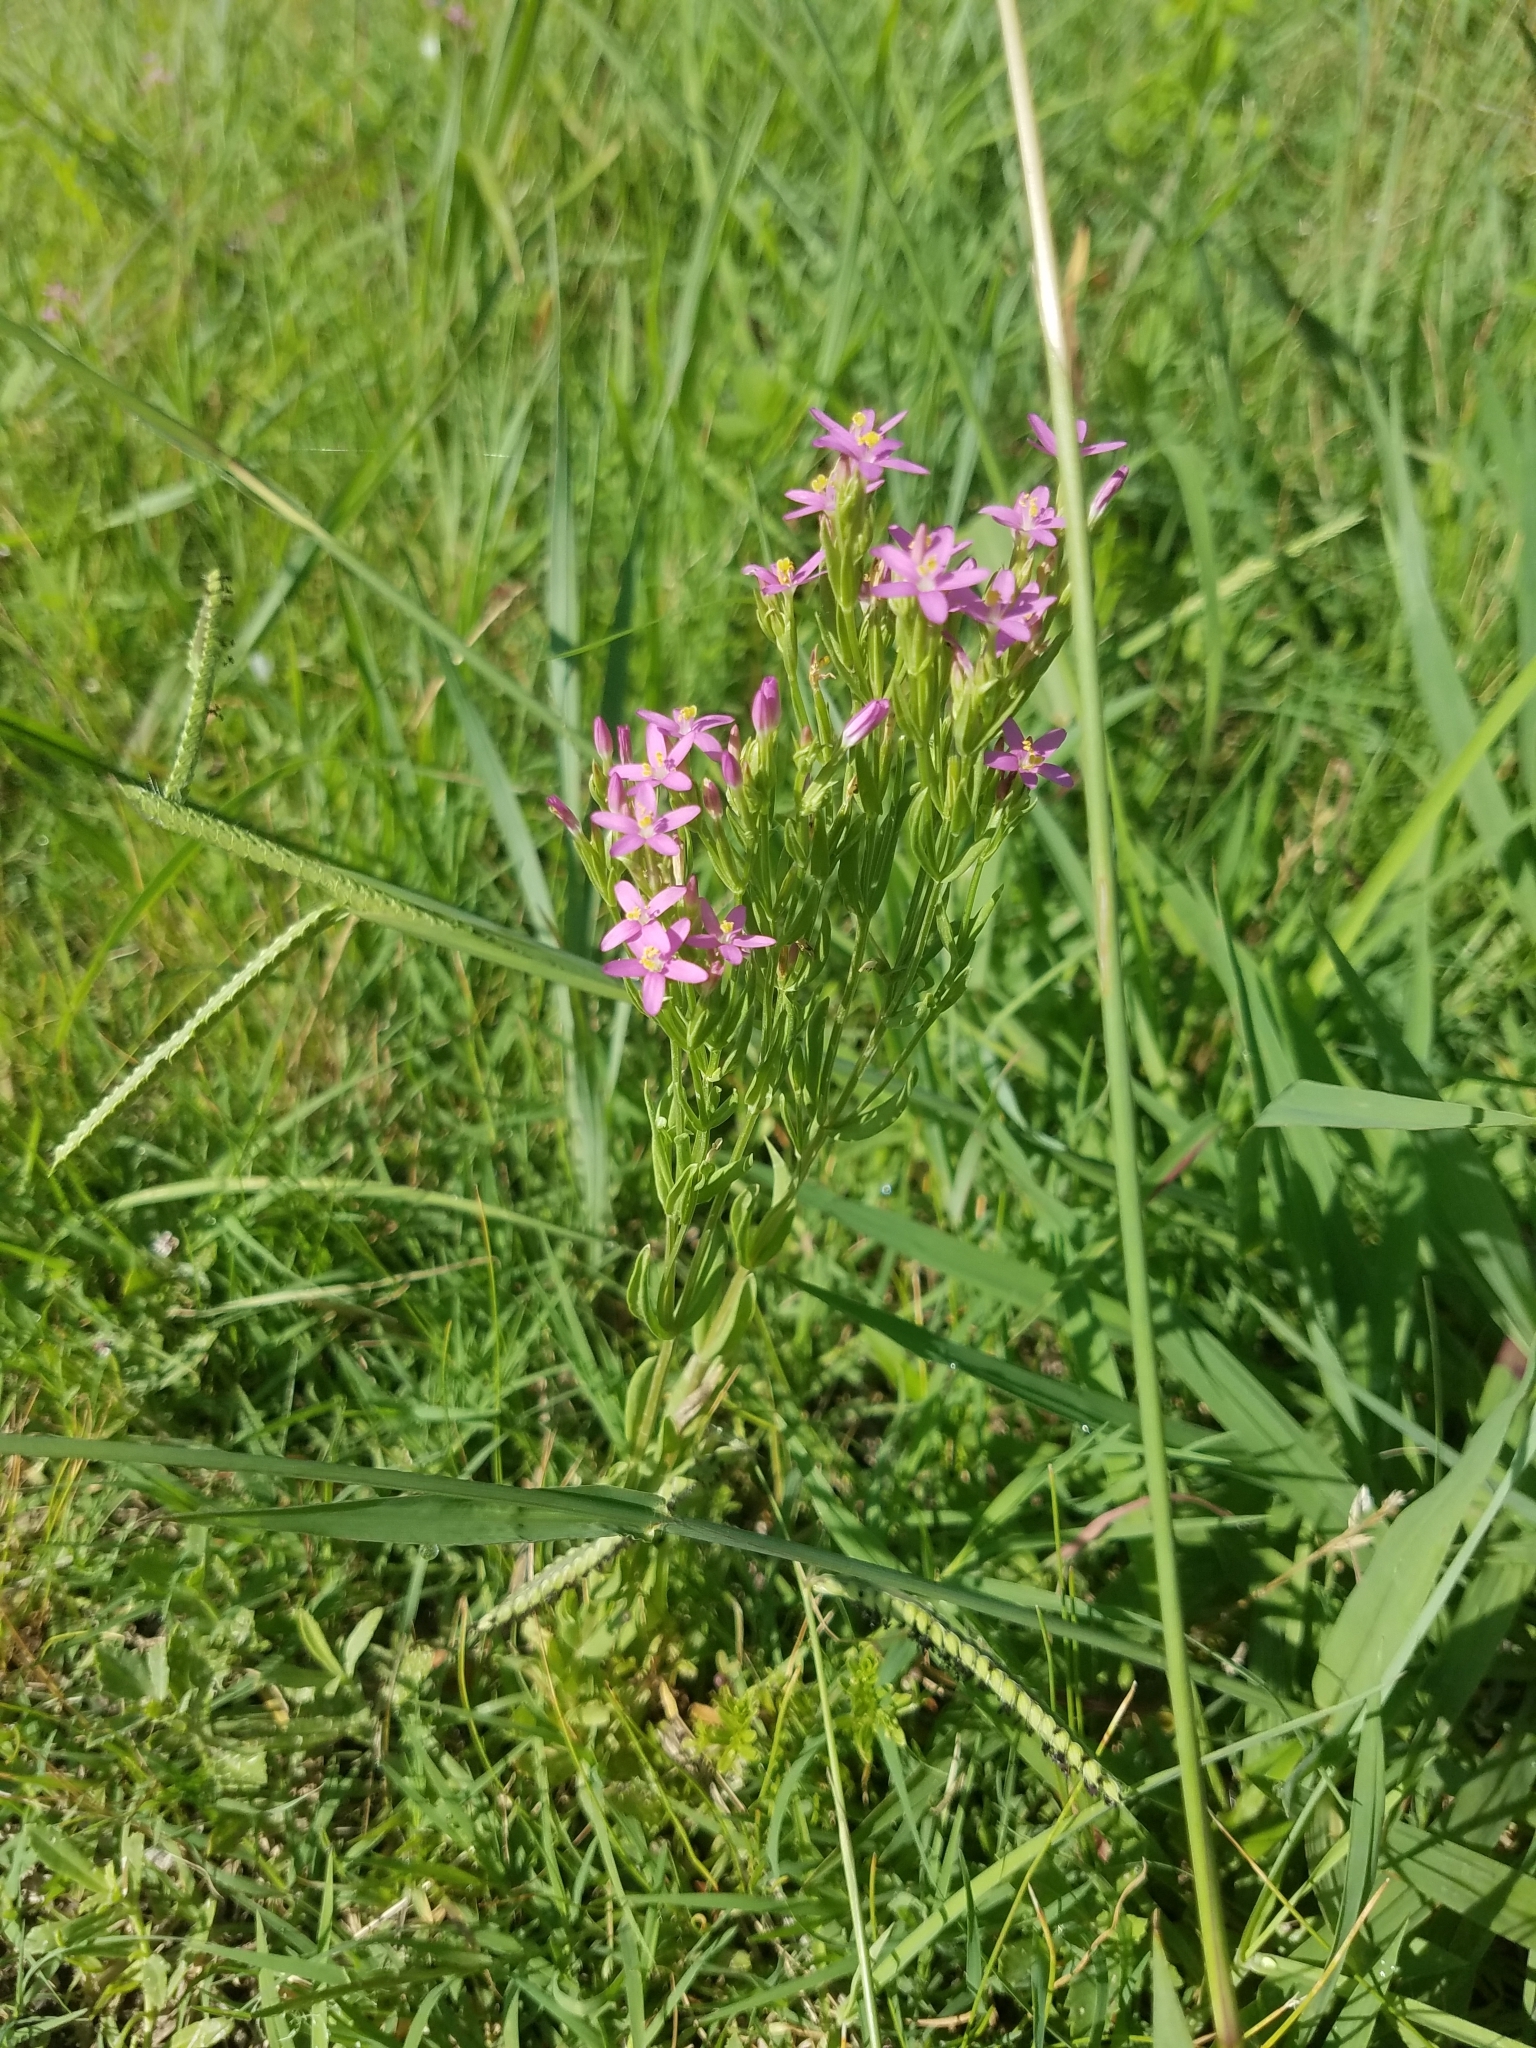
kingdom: Plantae
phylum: Tracheophyta
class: Magnoliopsida
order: Gentianales
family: Gentianaceae
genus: Centaurium
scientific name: Centaurium tenuiflorum
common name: Slender centaury
